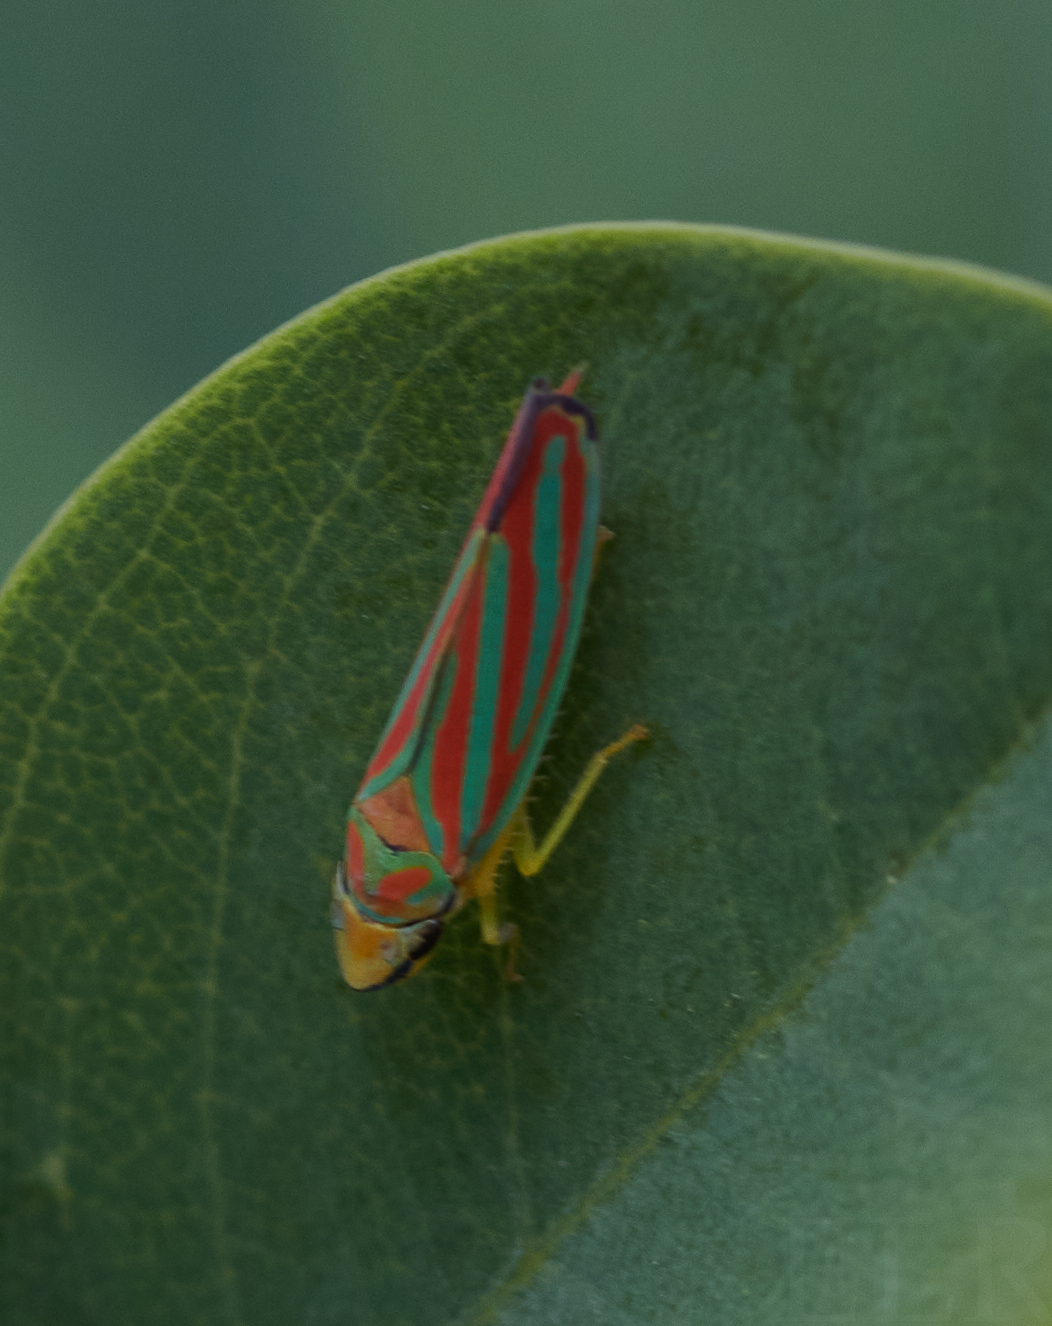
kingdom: Animalia
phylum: Arthropoda
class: Insecta
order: Hemiptera
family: Cicadellidae
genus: Graphocephala
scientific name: Graphocephala coccinea
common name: Candy-striped leafhopper
